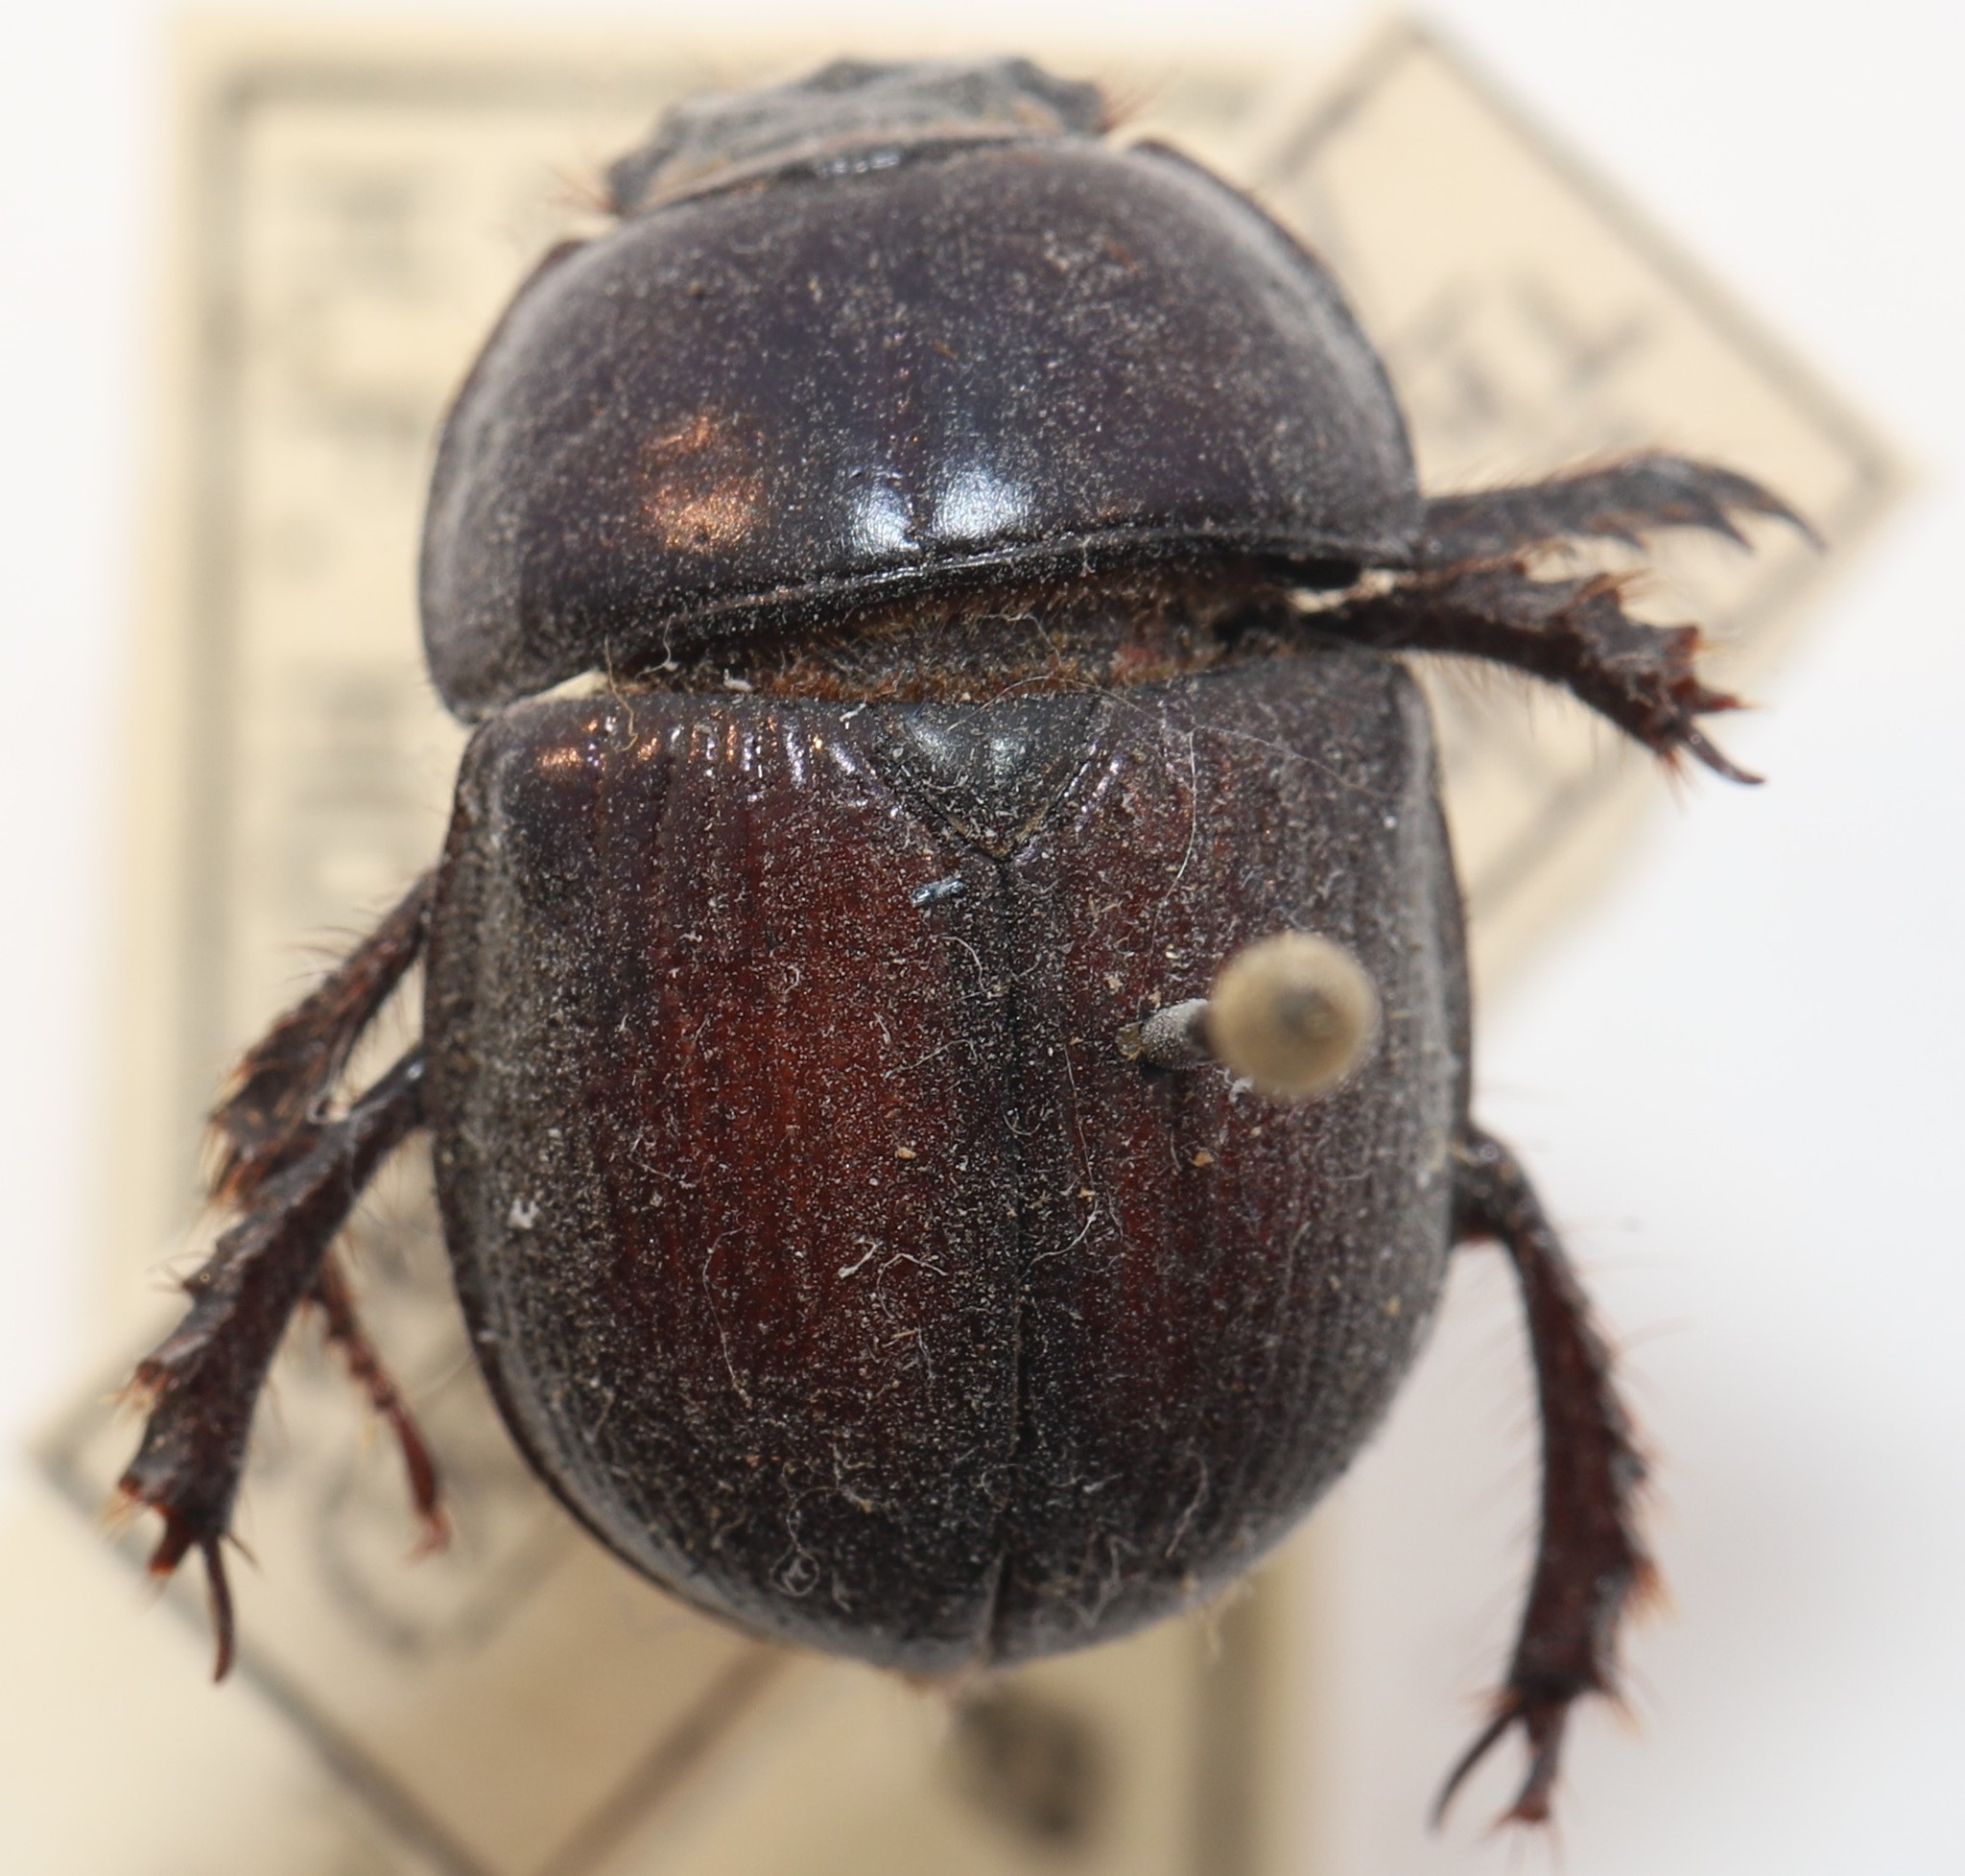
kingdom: Animalia
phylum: Arthropoda
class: Insecta
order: Coleoptera
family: Geotrupidae
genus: Anoplotrupes
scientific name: Anoplotrupes balyi
